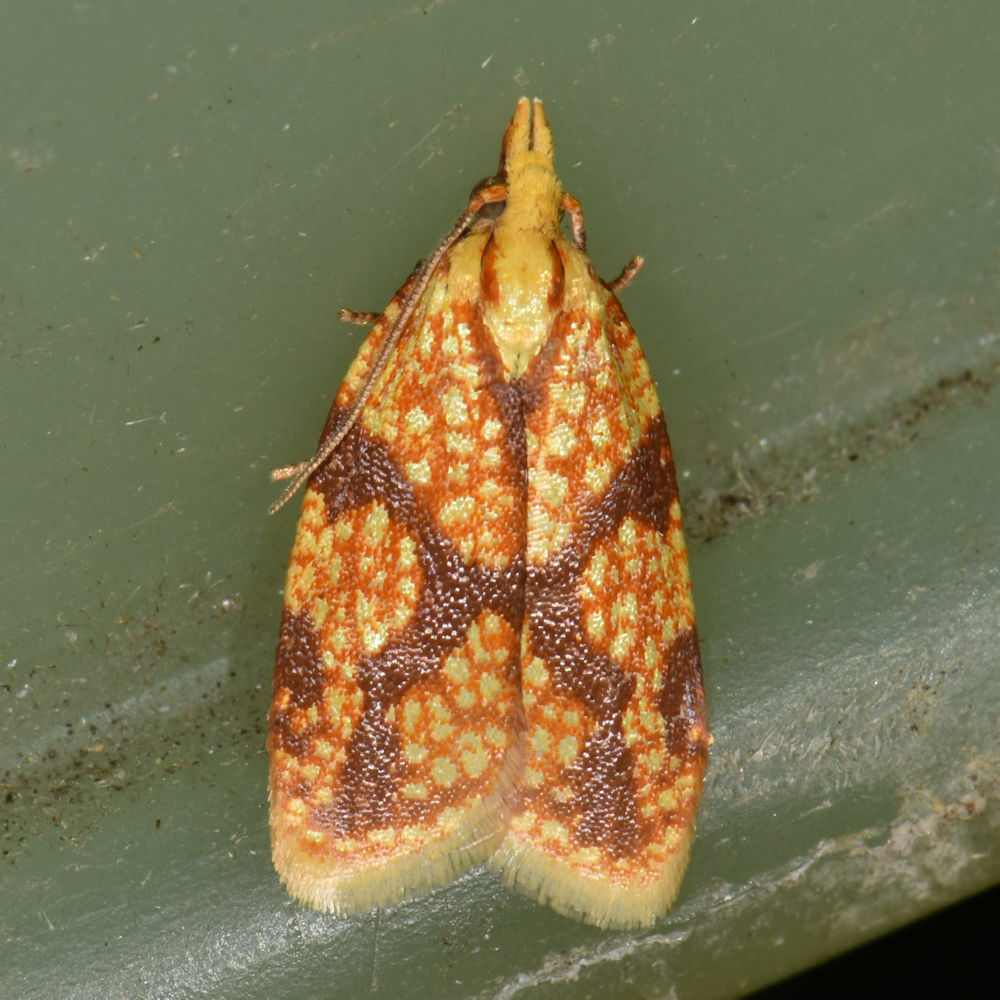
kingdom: Animalia
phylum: Arthropoda
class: Insecta
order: Lepidoptera
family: Tortricidae
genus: Sparganothis
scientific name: Sparganothis sulfureana
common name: Sparganothis fruitworm moth
